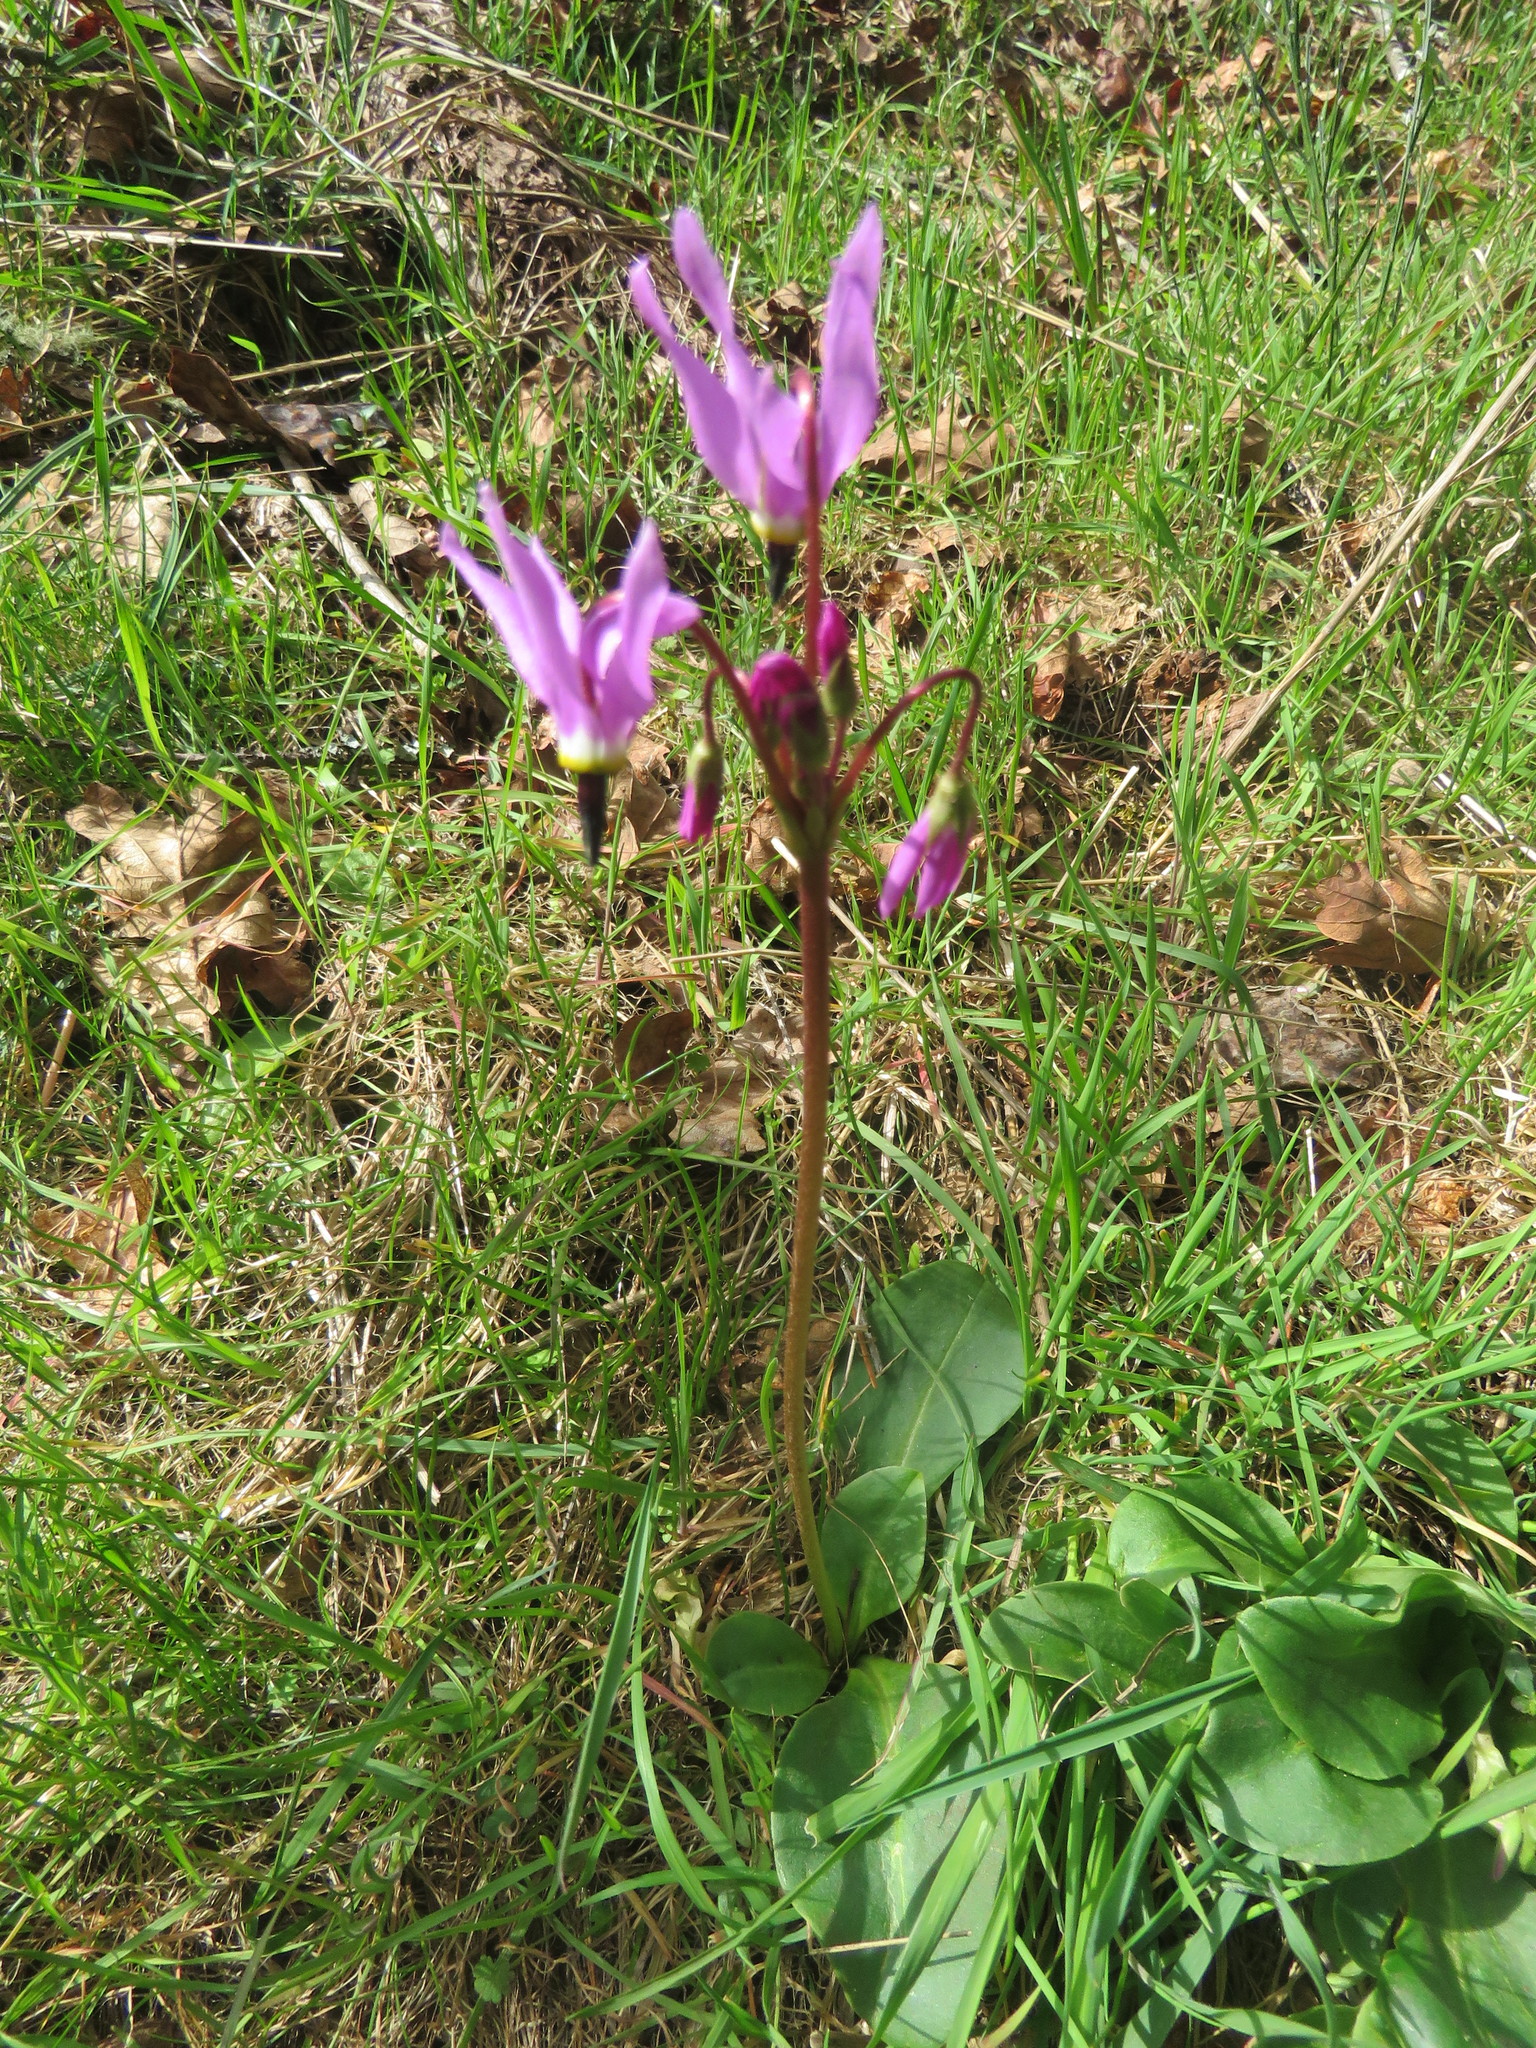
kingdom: Plantae
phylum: Tracheophyta
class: Magnoliopsida
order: Ericales
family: Primulaceae
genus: Dodecatheon
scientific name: Dodecatheon hendersonii
